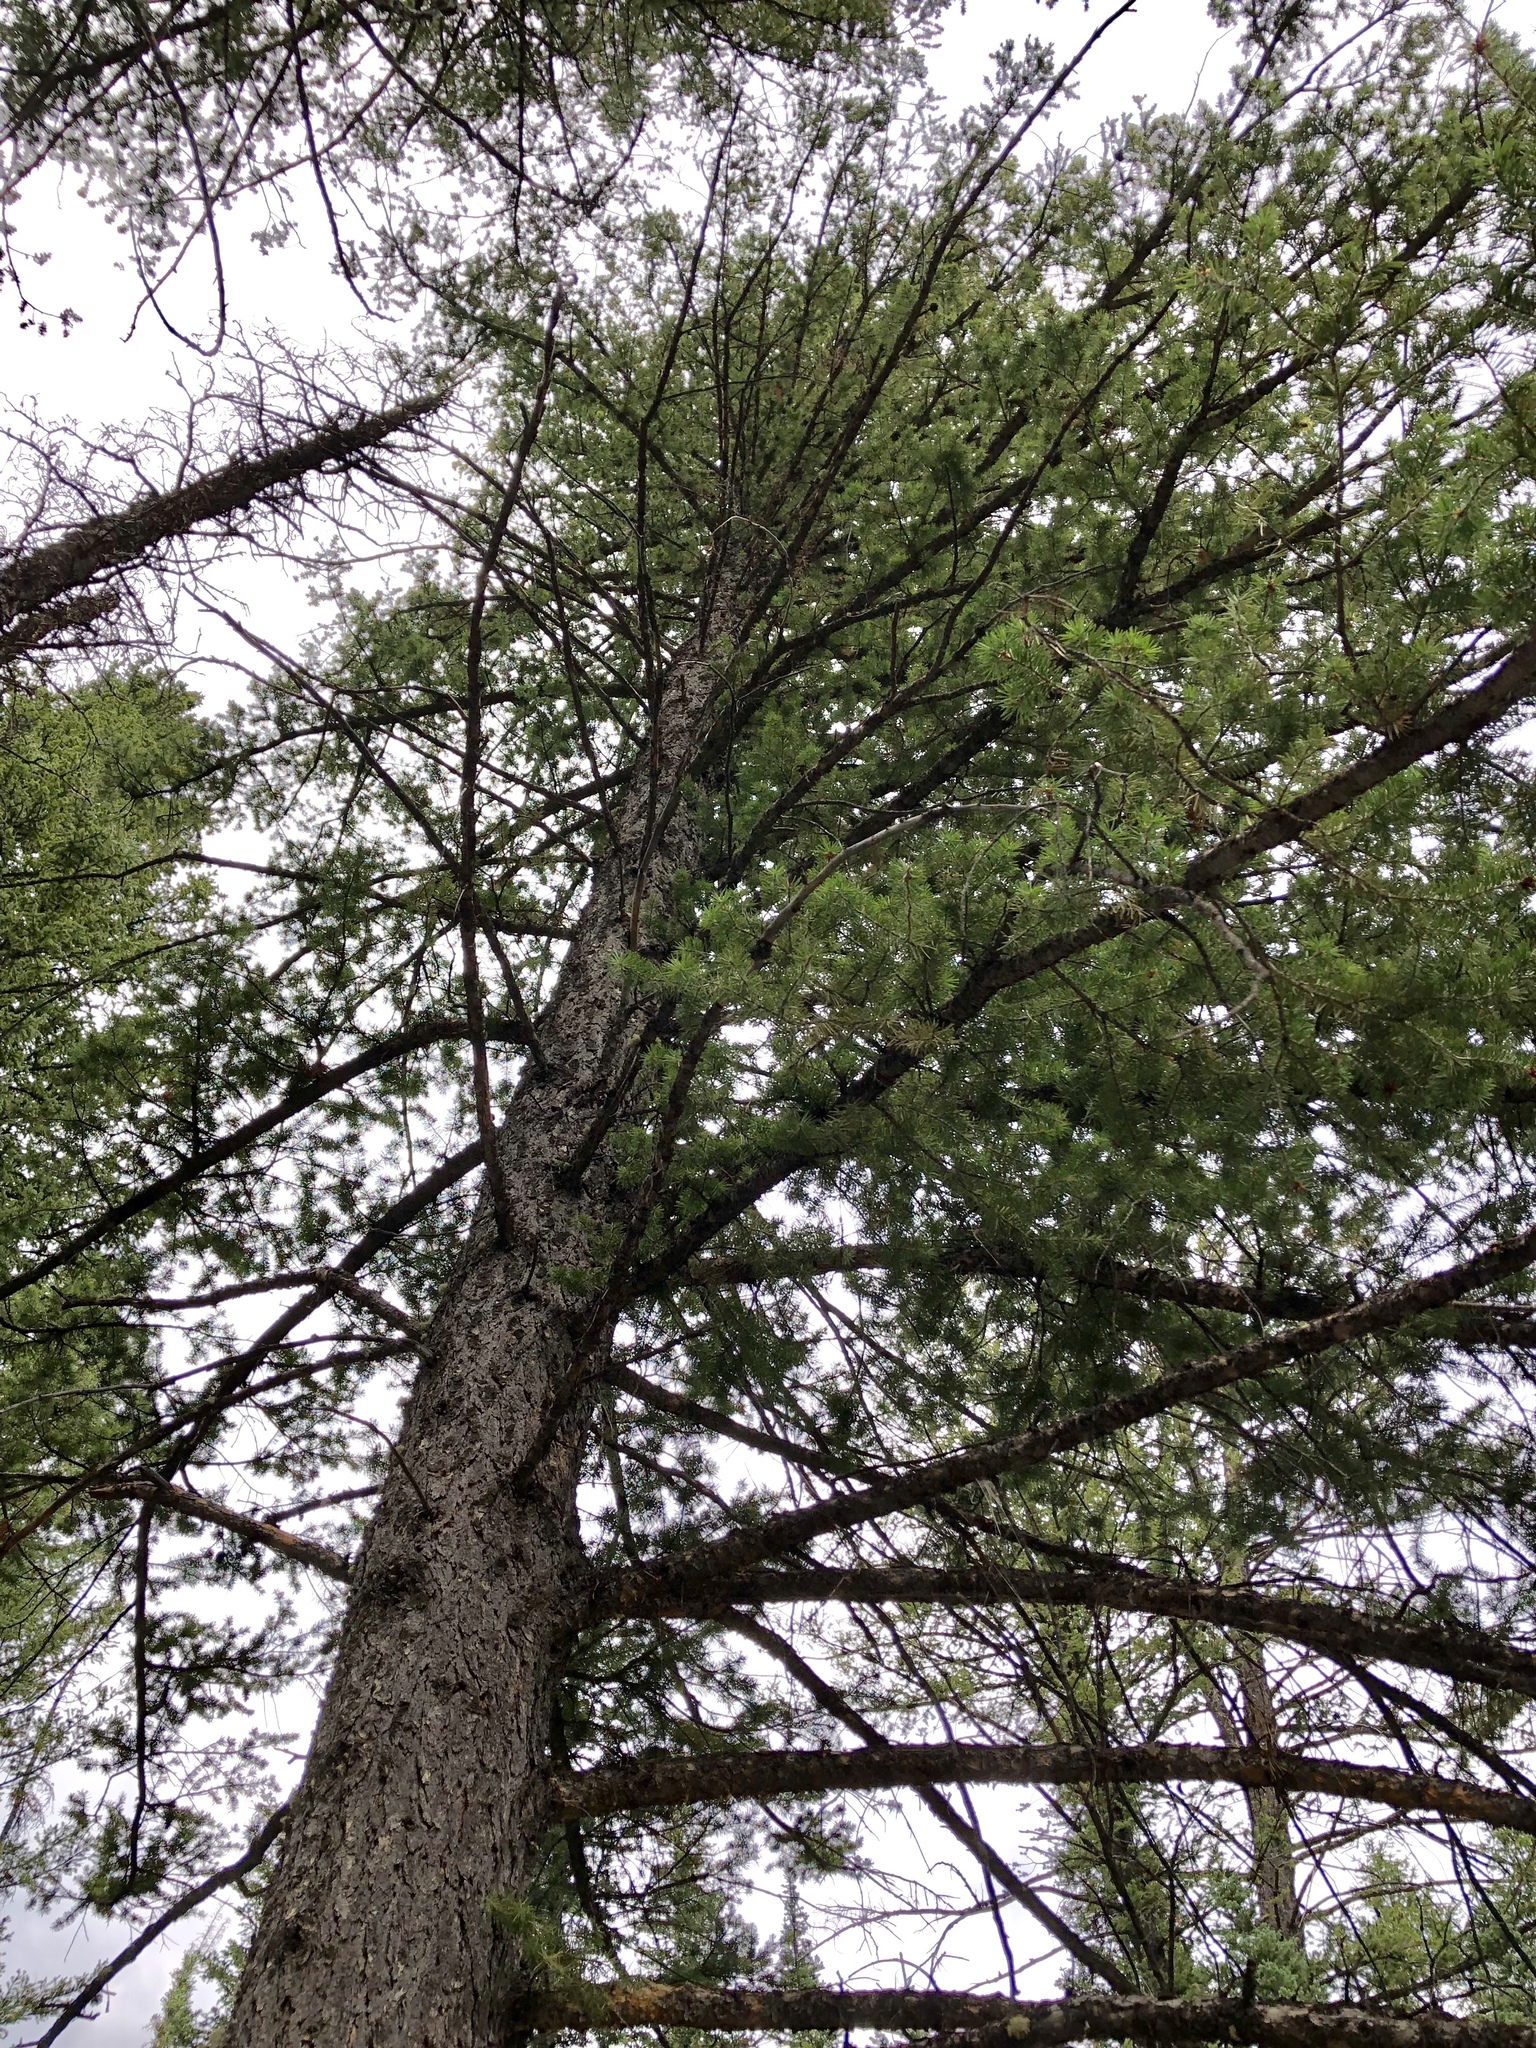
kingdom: Plantae
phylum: Tracheophyta
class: Pinopsida
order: Pinales
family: Pinaceae
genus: Pseudotsuga
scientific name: Pseudotsuga menziesii
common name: Douglas fir
